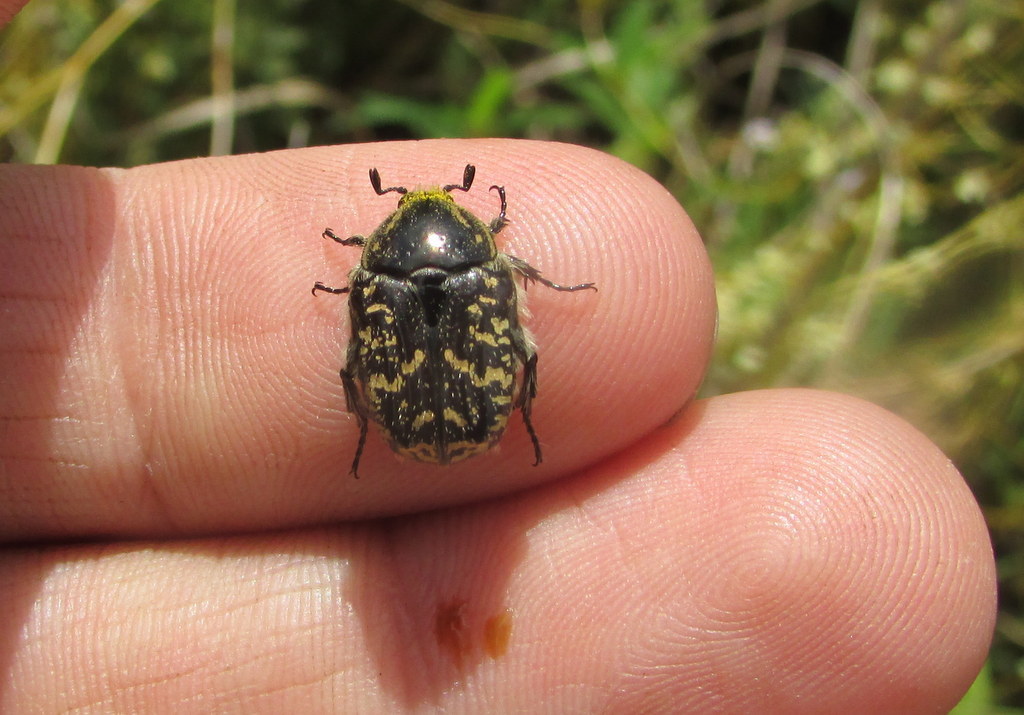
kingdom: Animalia
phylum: Arthropoda
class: Insecta
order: Coleoptera
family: Scarabaeidae
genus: Euphoria
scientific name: Euphoria lurida
